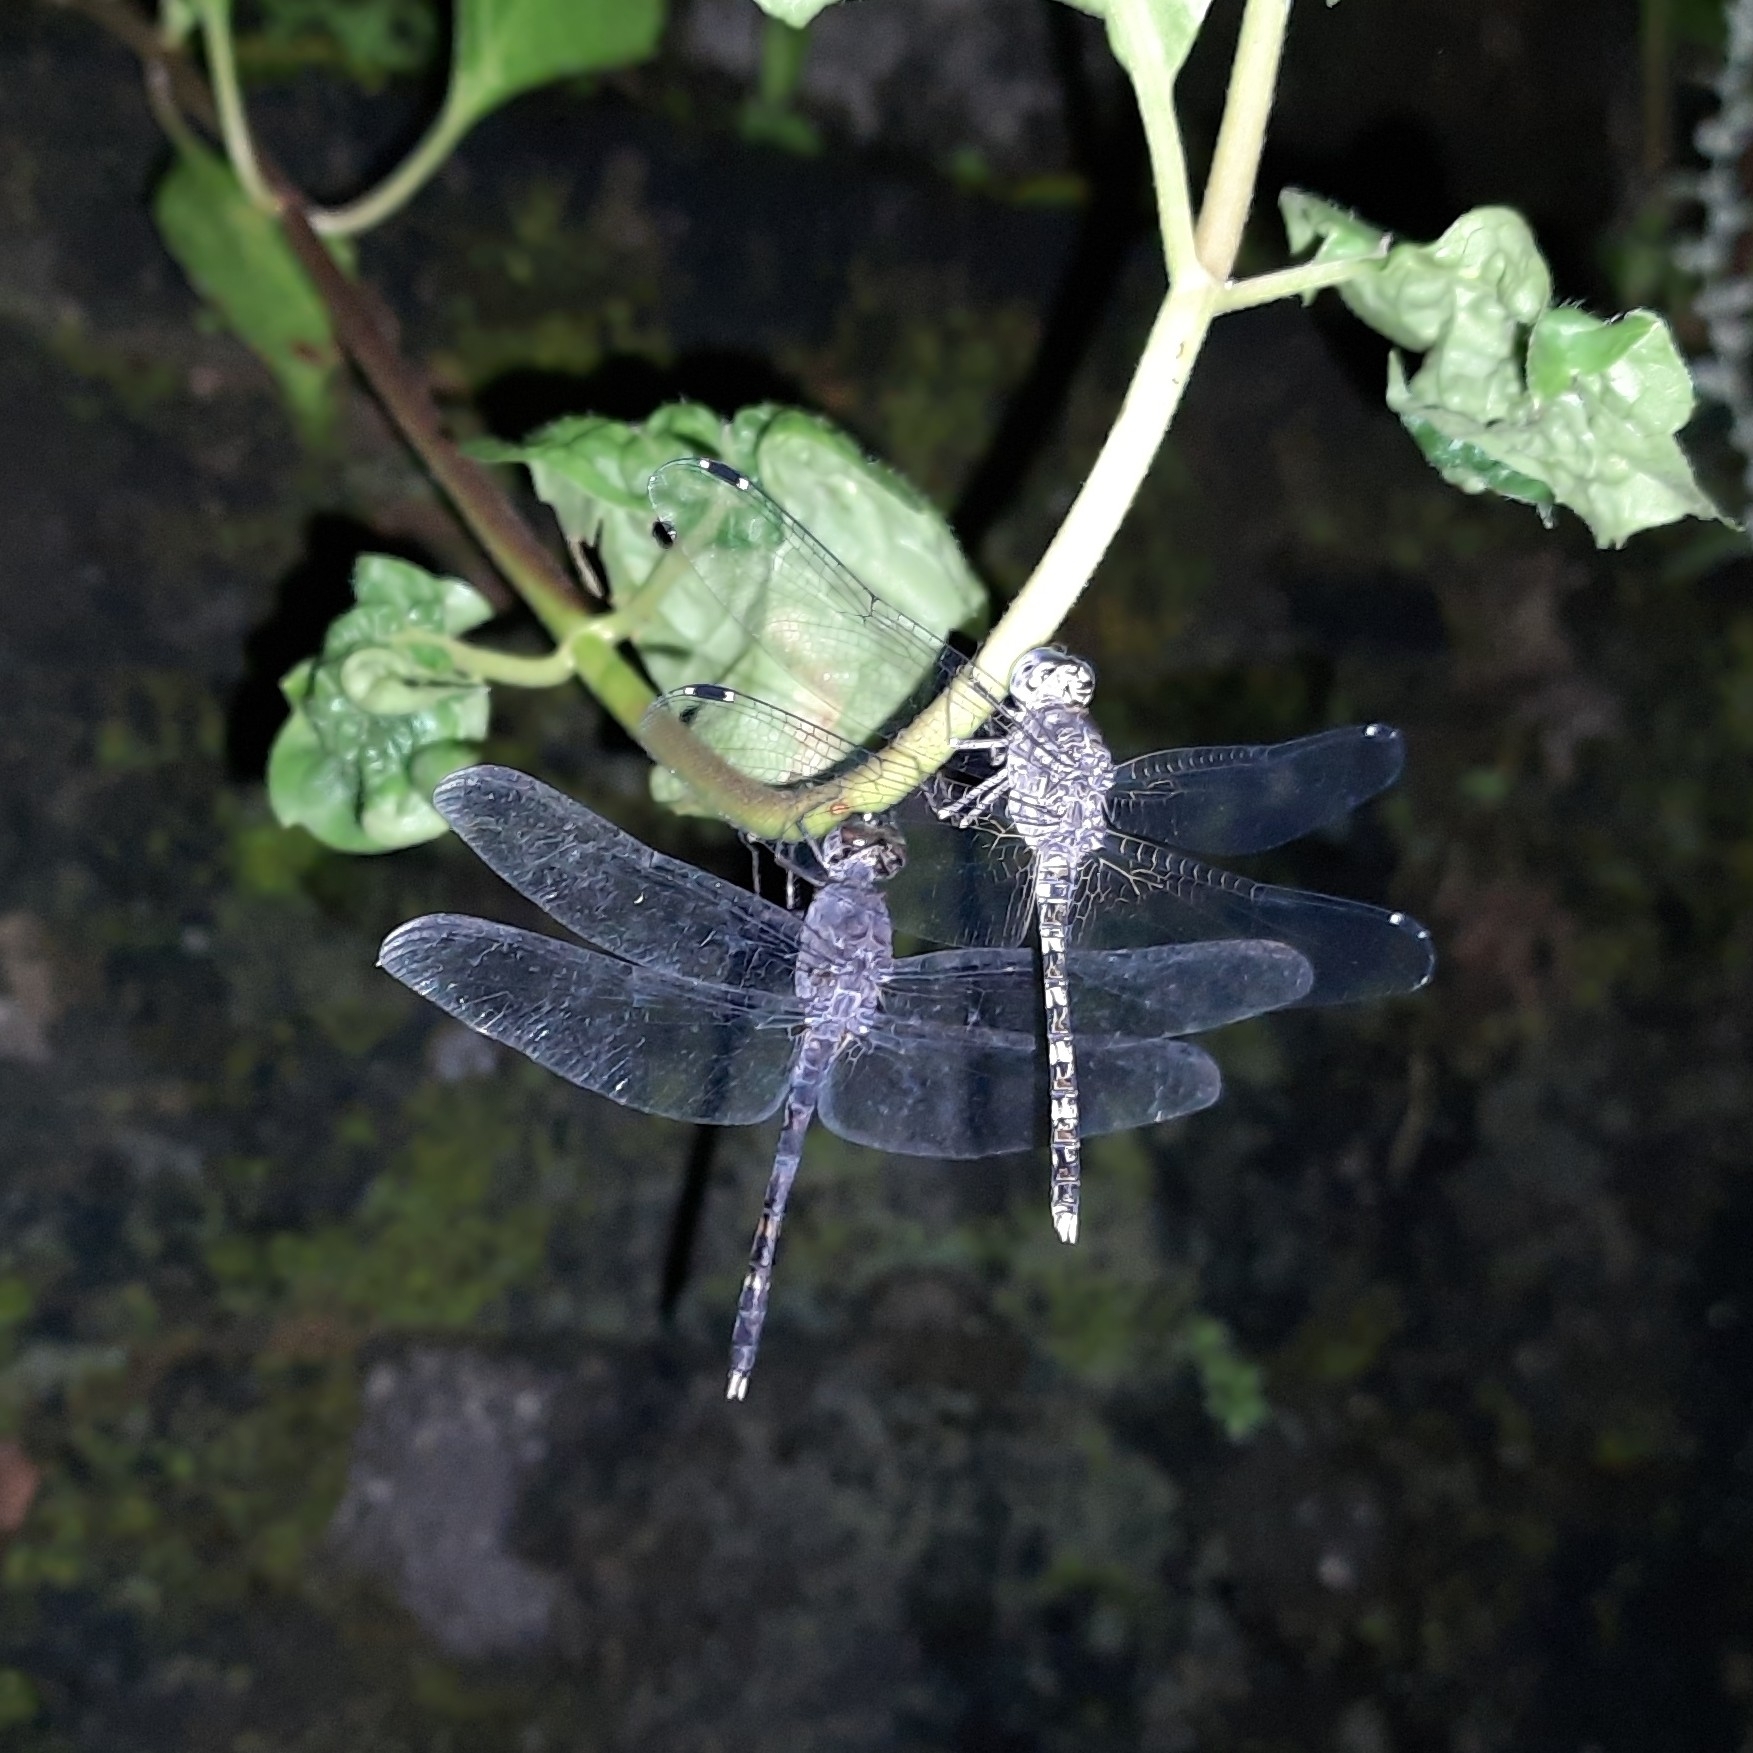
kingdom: Animalia
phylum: Arthropoda
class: Insecta
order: Odonata
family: Libellulidae
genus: Bradinopyga
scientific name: Bradinopyga geminata
